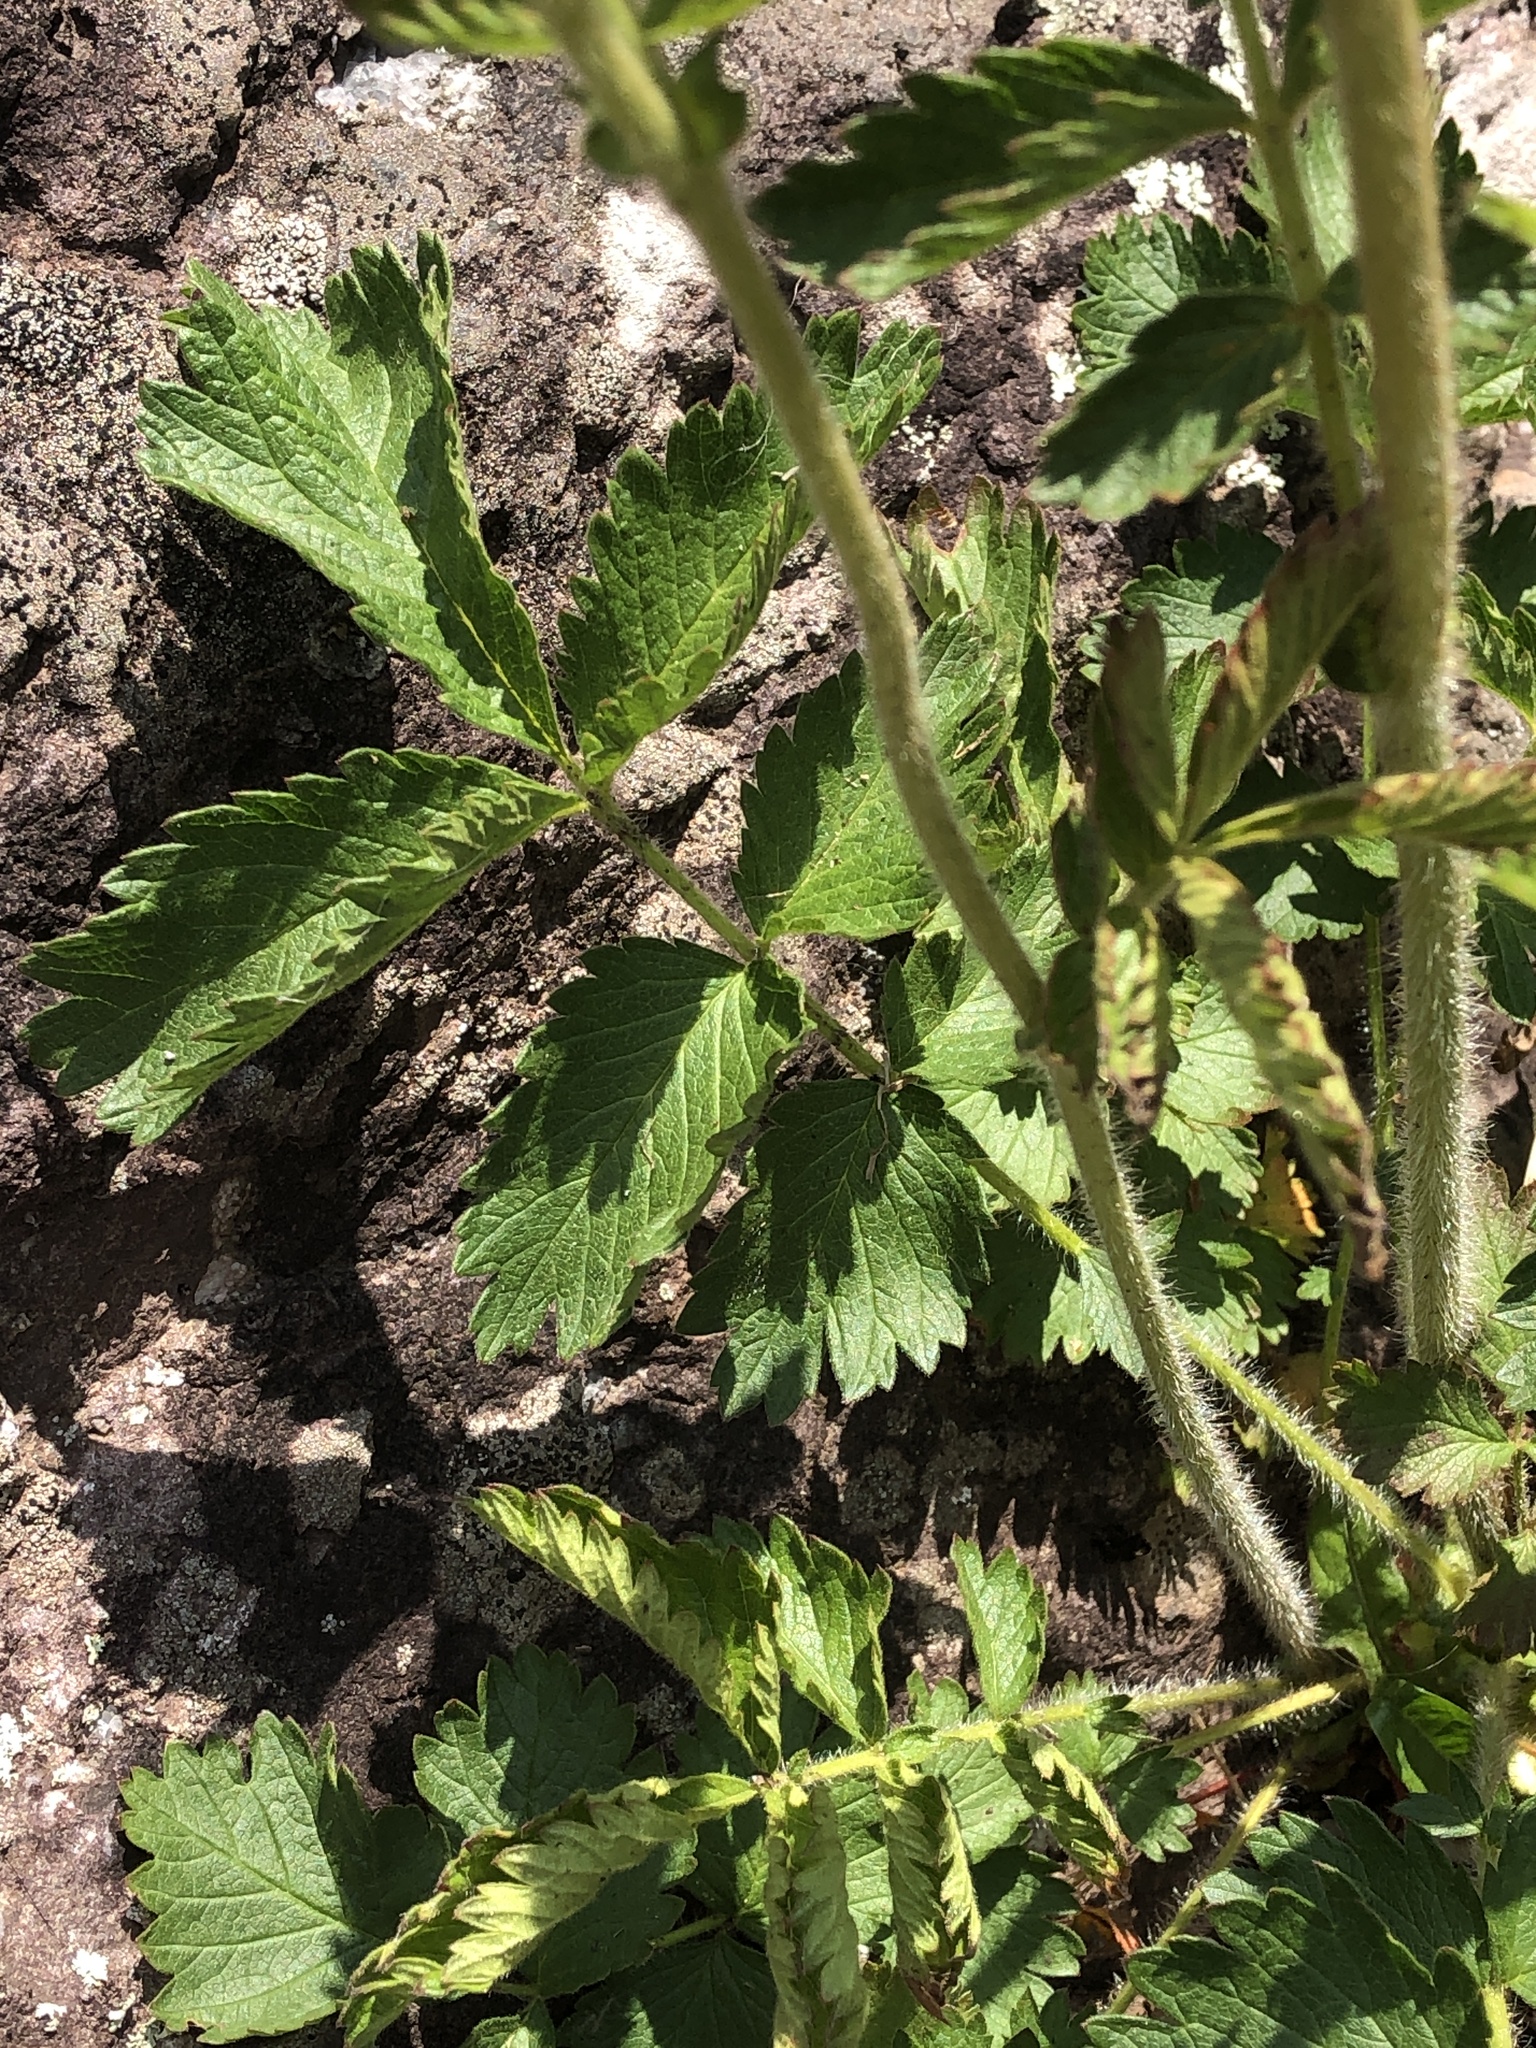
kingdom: Plantae
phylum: Tracheophyta
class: Magnoliopsida
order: Rosales
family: Rosaceae
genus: Drymocallis
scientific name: Drymocallis arguta
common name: Tall cinquefoil
